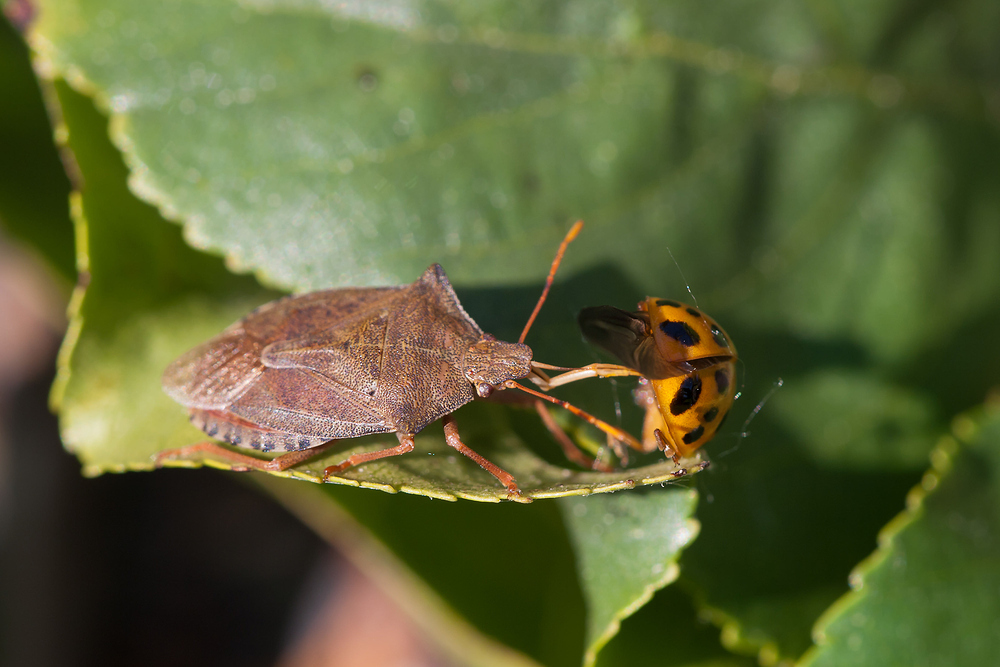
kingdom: Animalia
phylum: Arthropoda
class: Insecta
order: Hemiptera
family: Pentatomidae
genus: Arma
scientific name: Arma custos
